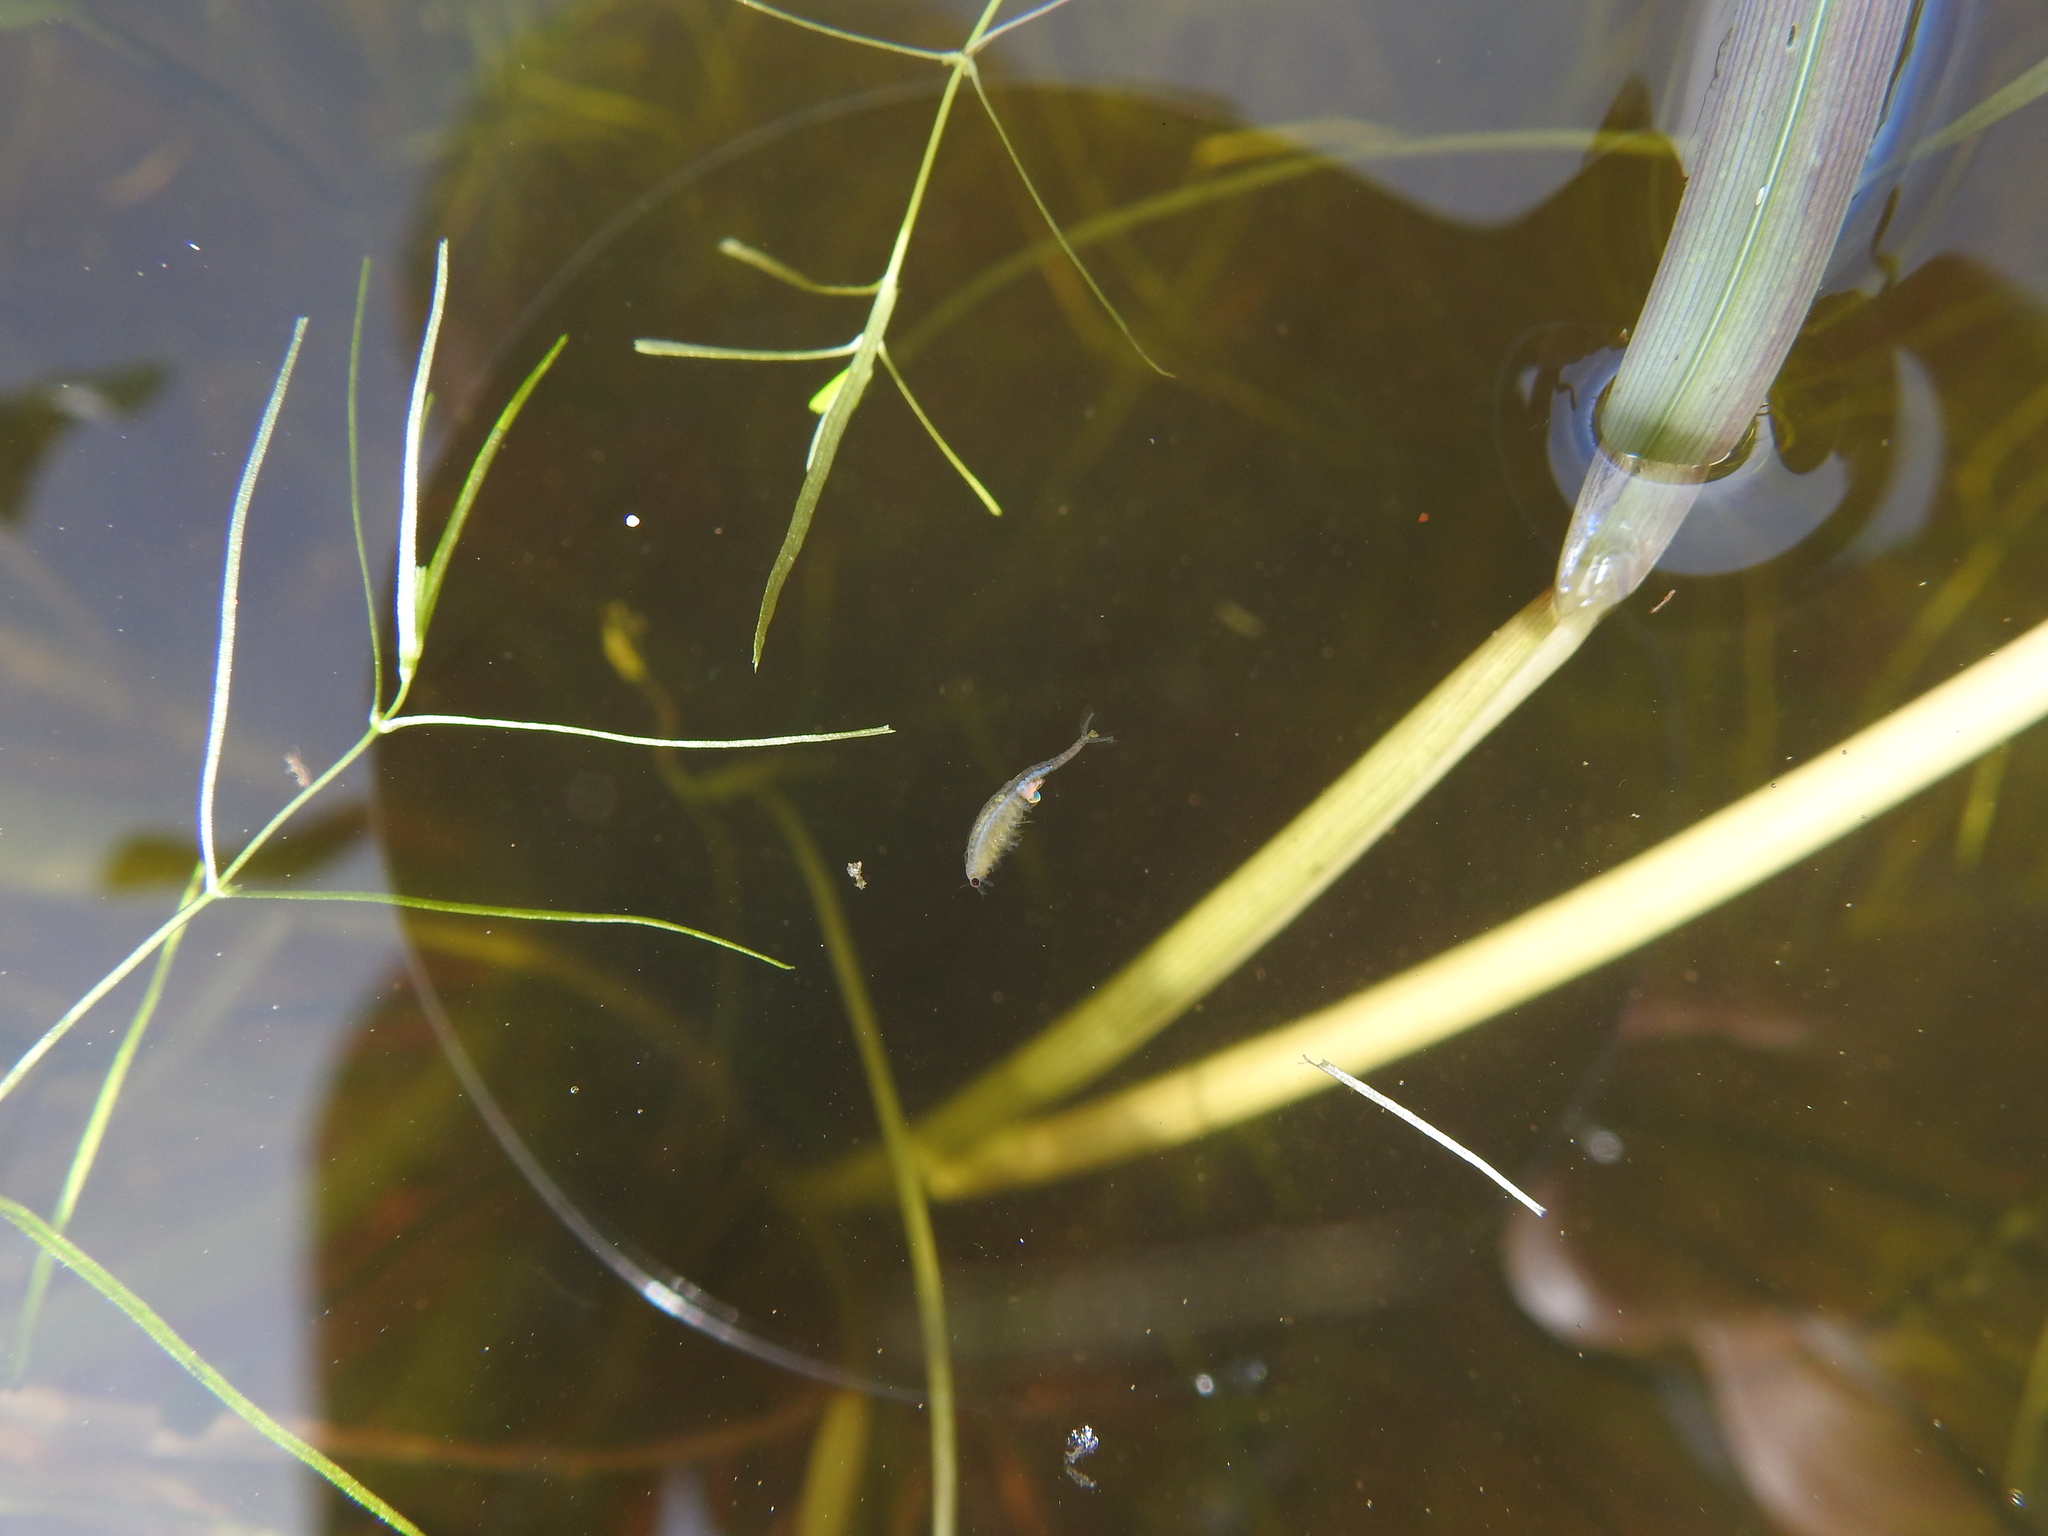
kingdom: Animalia
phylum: Arthropoda
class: Branchiopoda
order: Anostraca
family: Branchipodidae
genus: Branchipus
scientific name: Branchipus schaefferi
